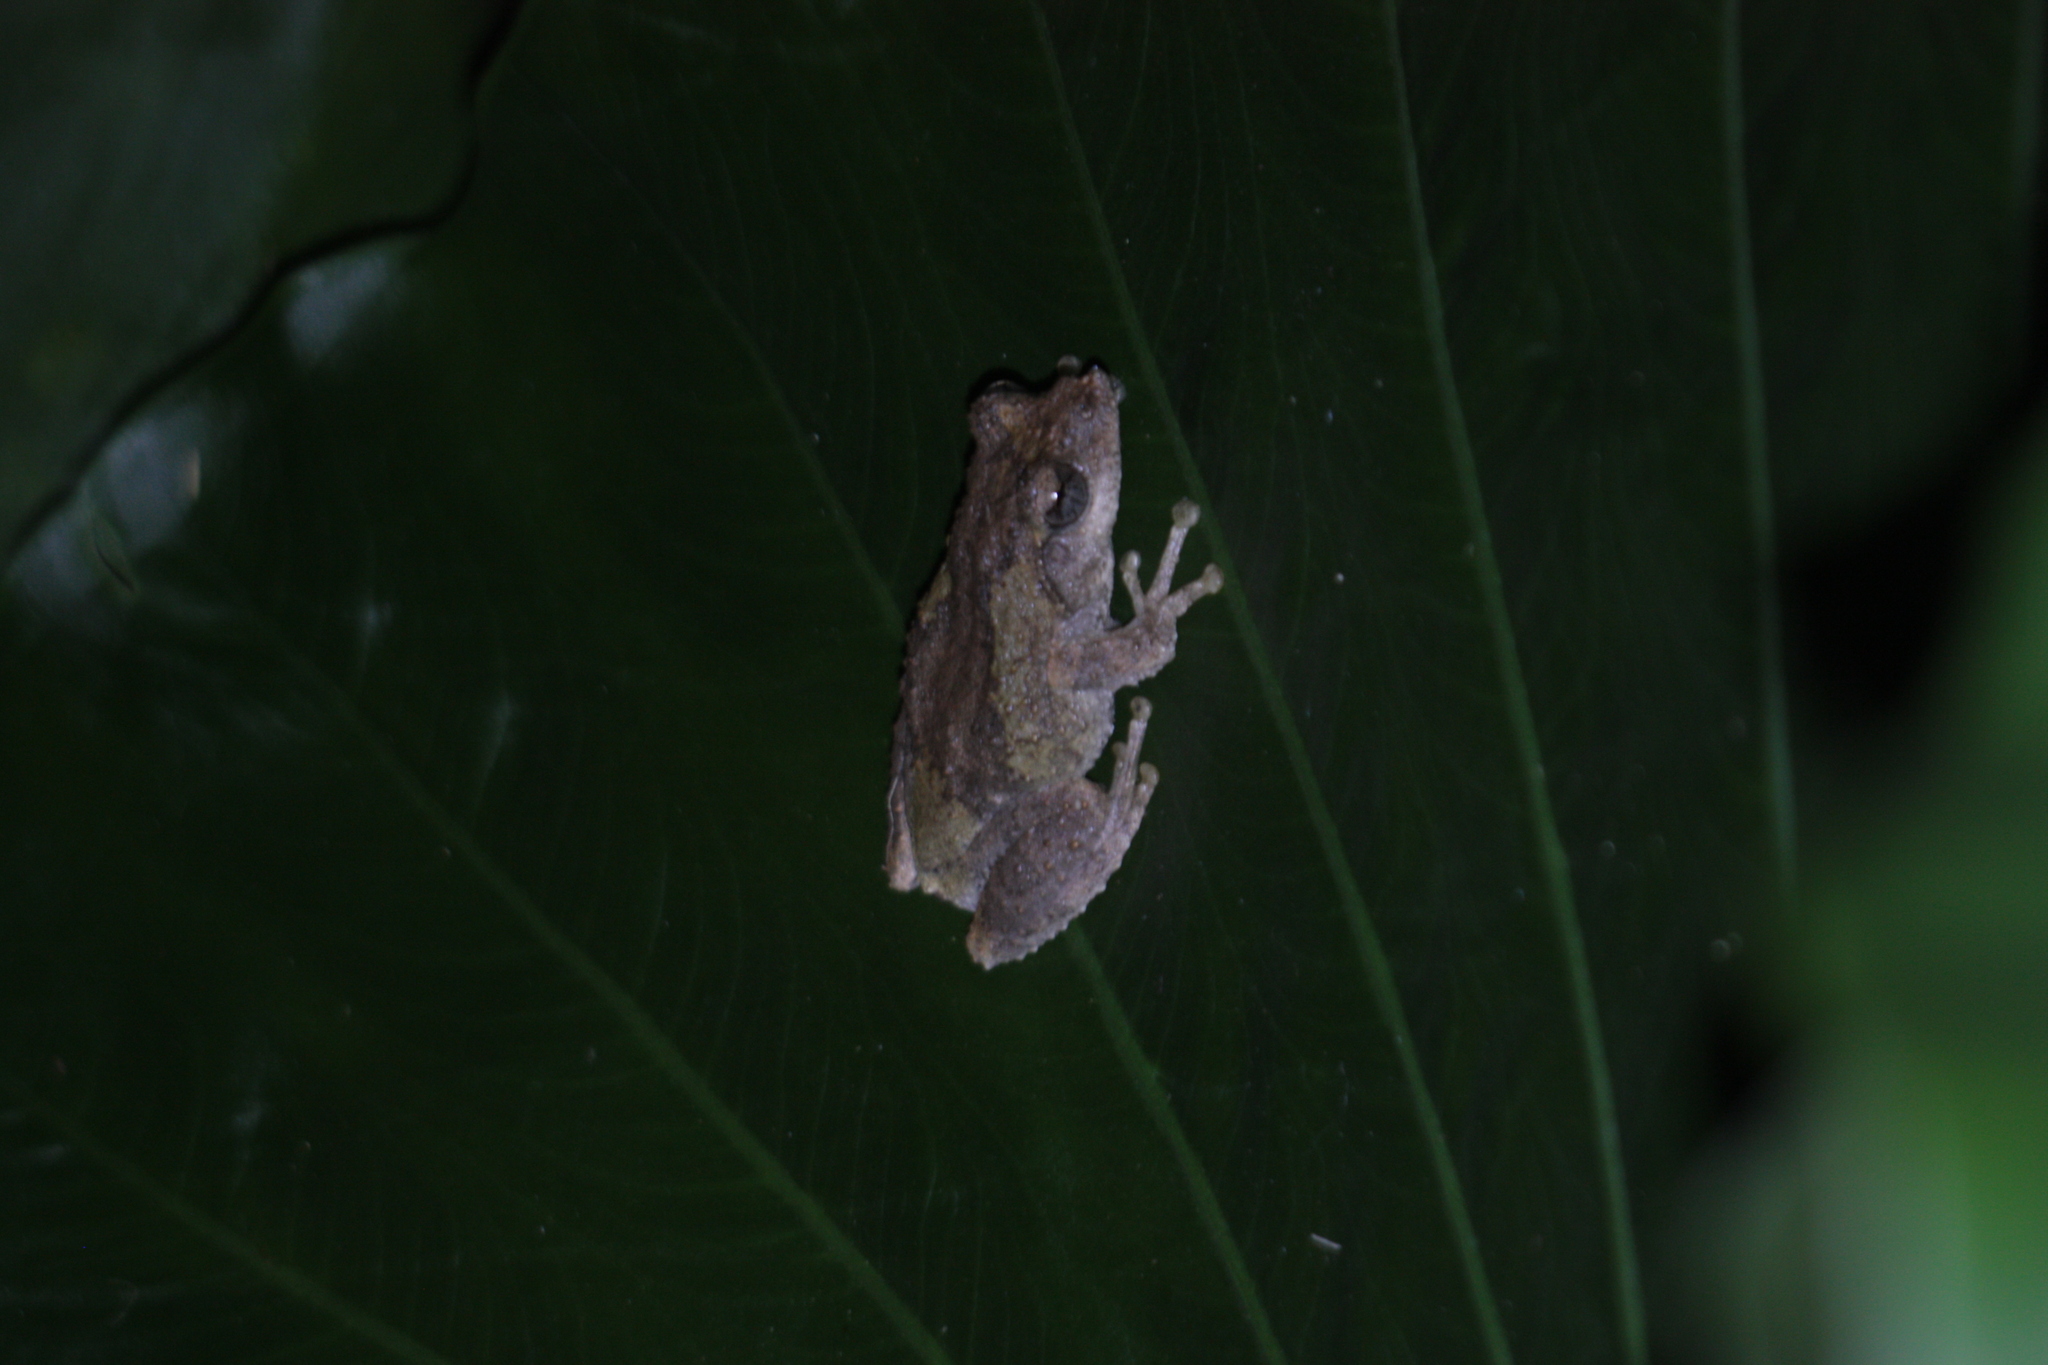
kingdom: Animalia
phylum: Chordata
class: Amphibia
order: Anura
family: Rhacophoridae
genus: Kurixalus
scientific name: Kurixalus idiootocus
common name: Temple treefrog
